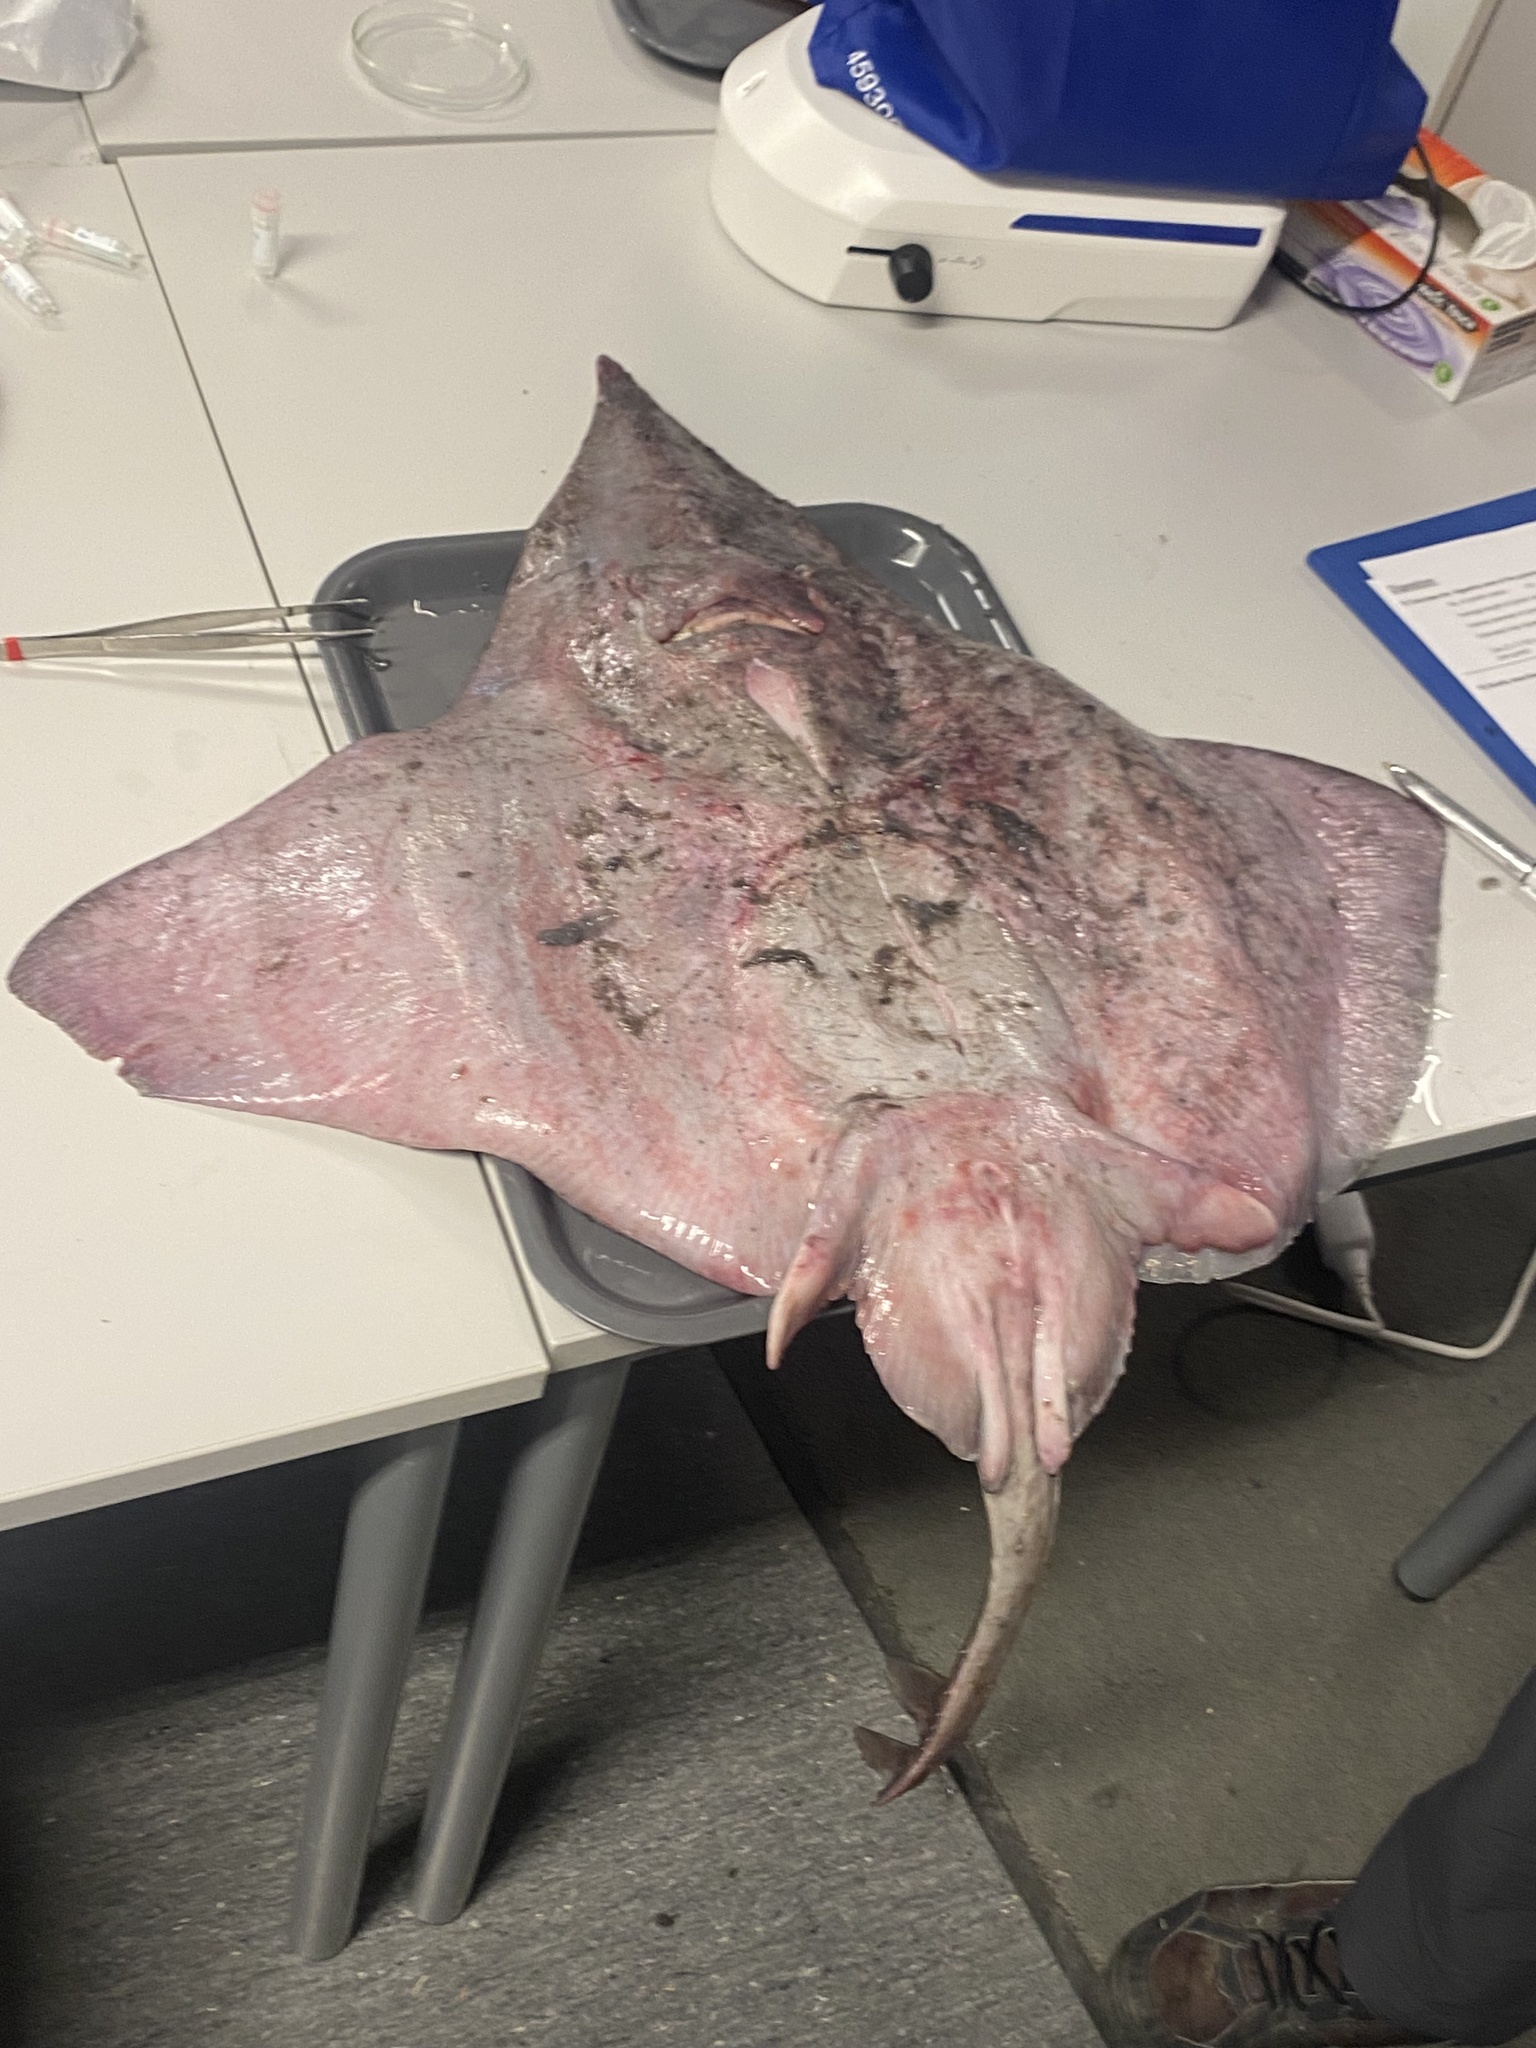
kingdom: Animalia
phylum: Chordata
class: Elasmobranchii
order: Rajiformes
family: Rajidae
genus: Dipturus
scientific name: Dipturus batis
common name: Blue skate
